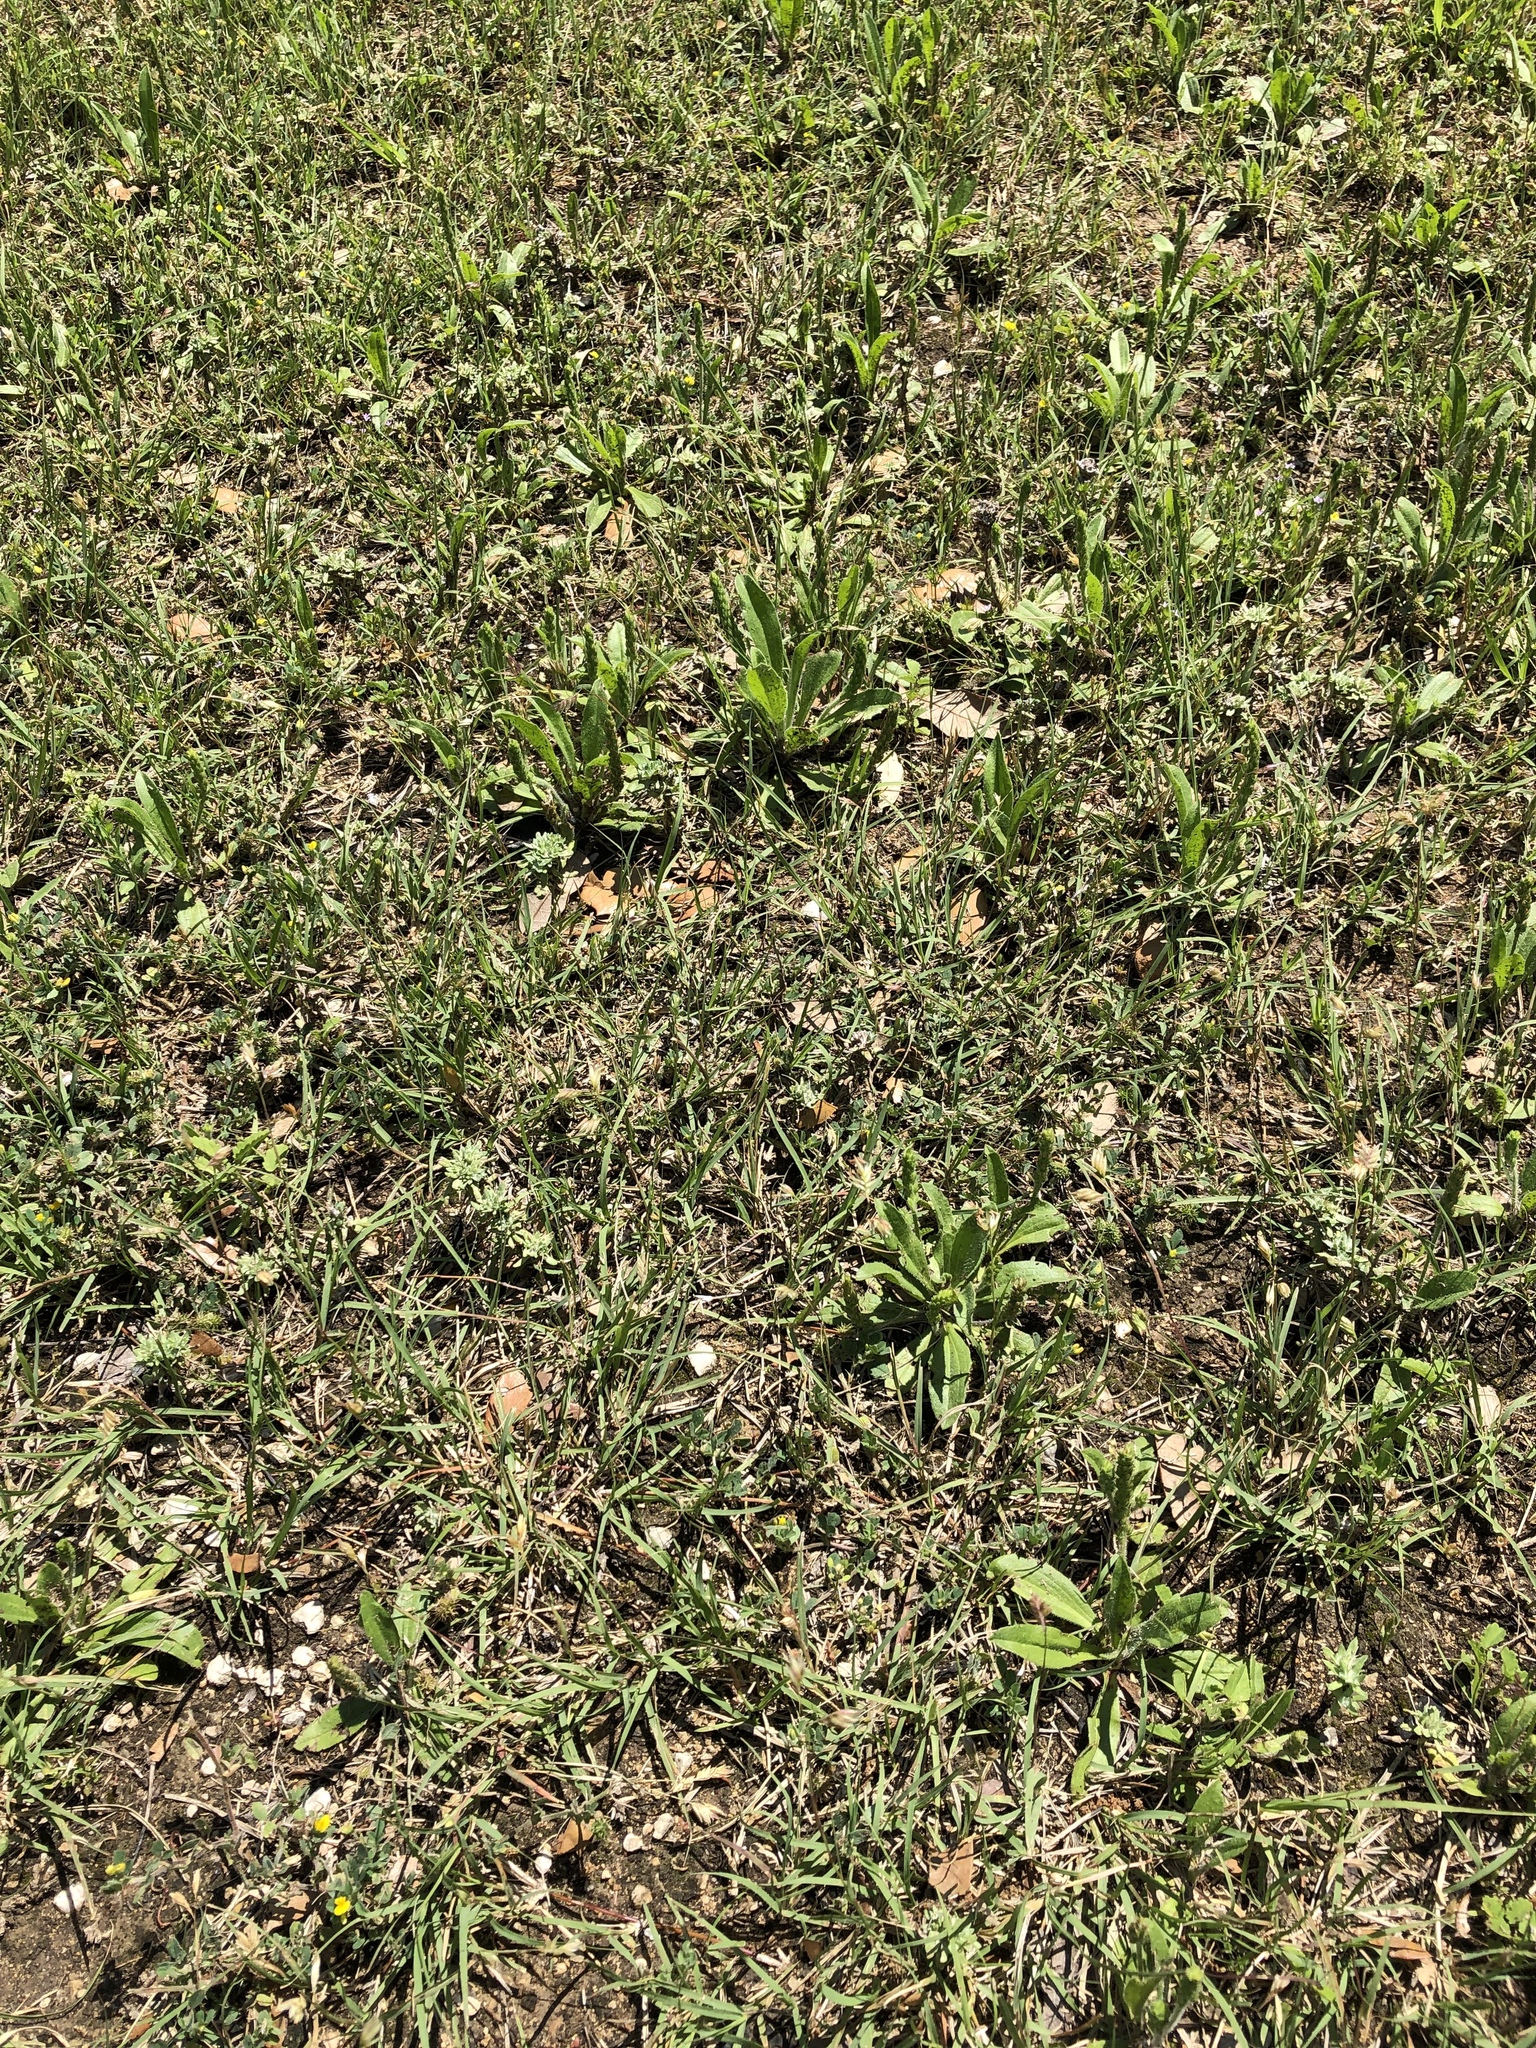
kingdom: Plantae
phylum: Tracheophyta
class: Liliopsida
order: Poales
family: Poaceae
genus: Bouteloua
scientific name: Bouteloua dactyloides
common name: Buffalo grass
